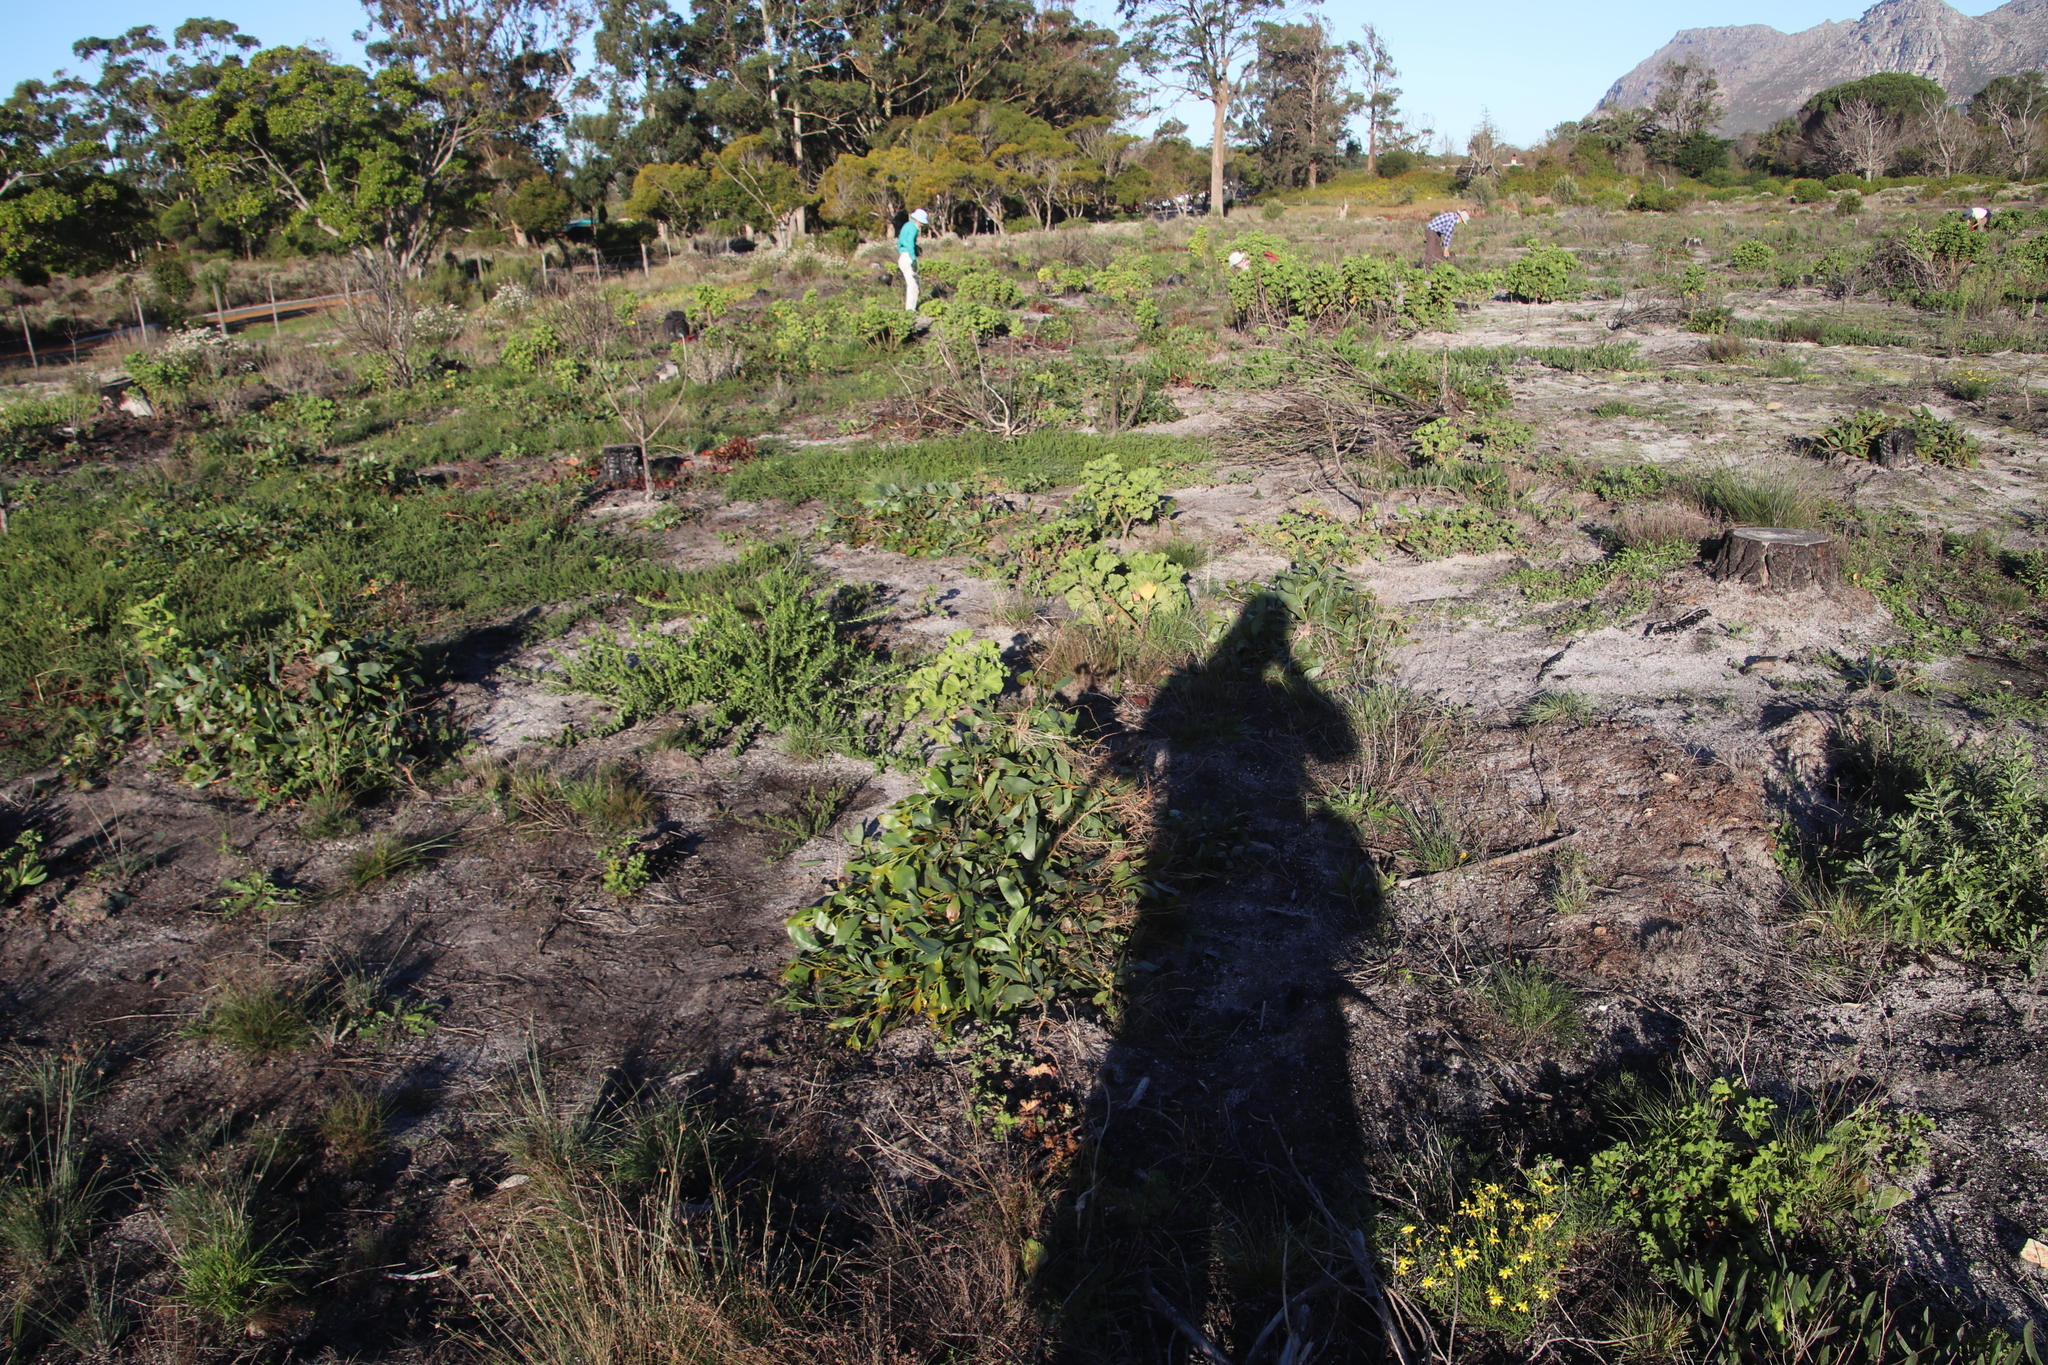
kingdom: Plantae
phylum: Tracheophyta
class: Magnoliopsida
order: Fabales
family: Fabaceae
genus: Acacia
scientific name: Acacia pycnantha
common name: Golden wattle
